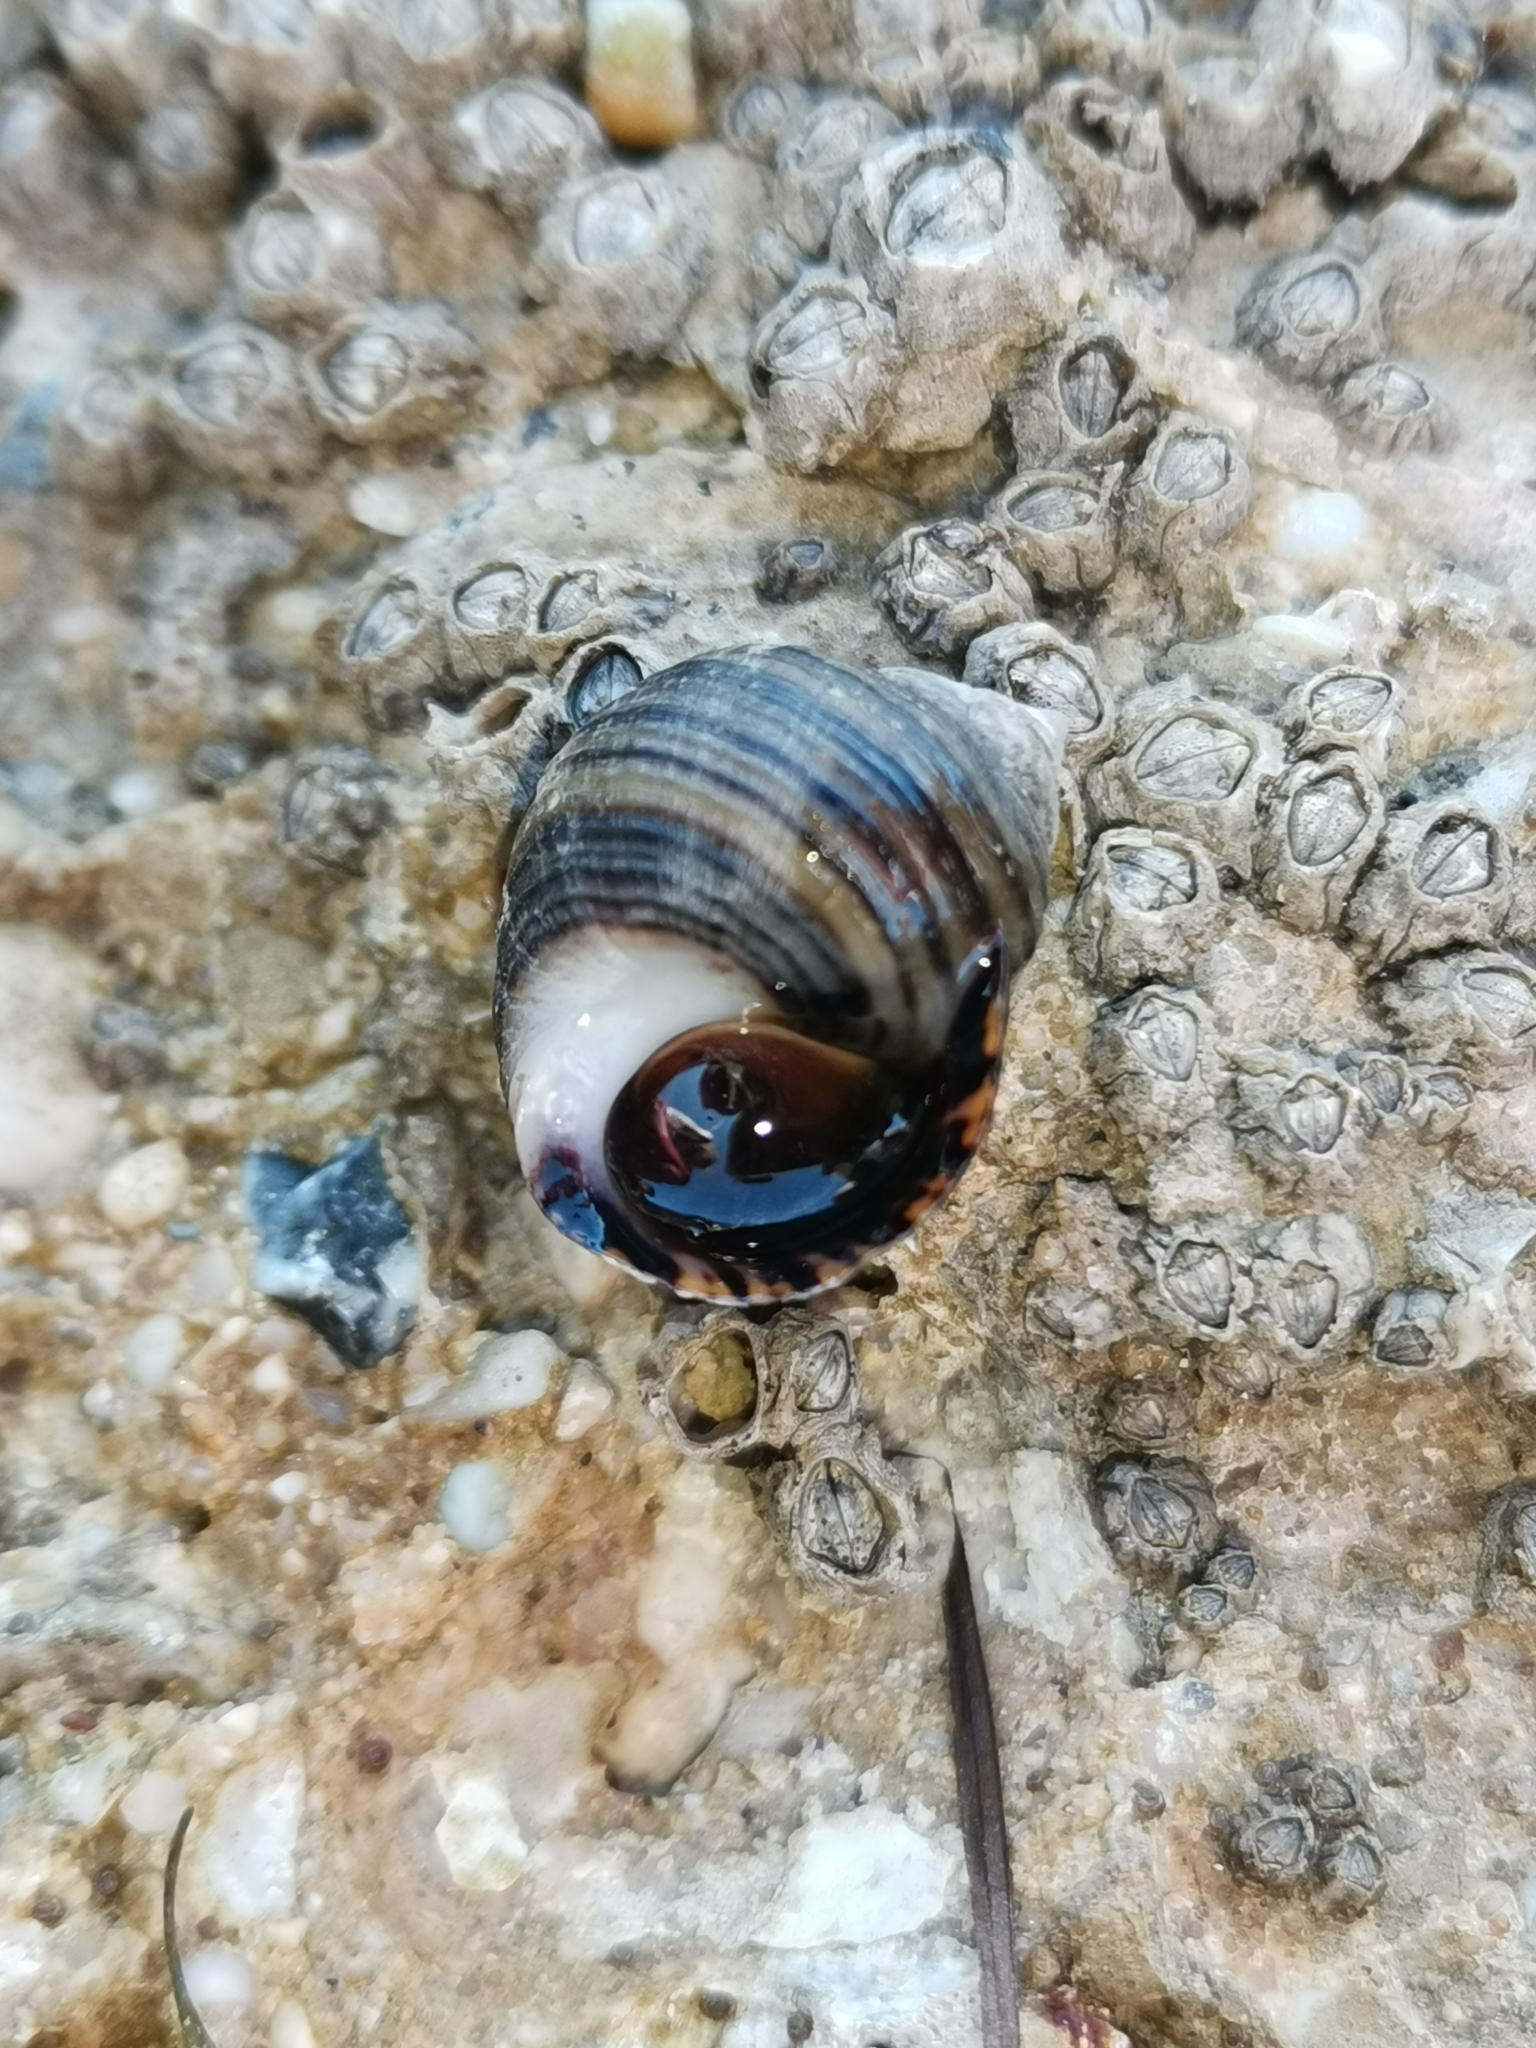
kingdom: Animalia
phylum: Mollusca
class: Gastropoda
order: Littorinimorpha
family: Littorinidae
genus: Littorina
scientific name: Littorina littorea
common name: Common periwinkle
